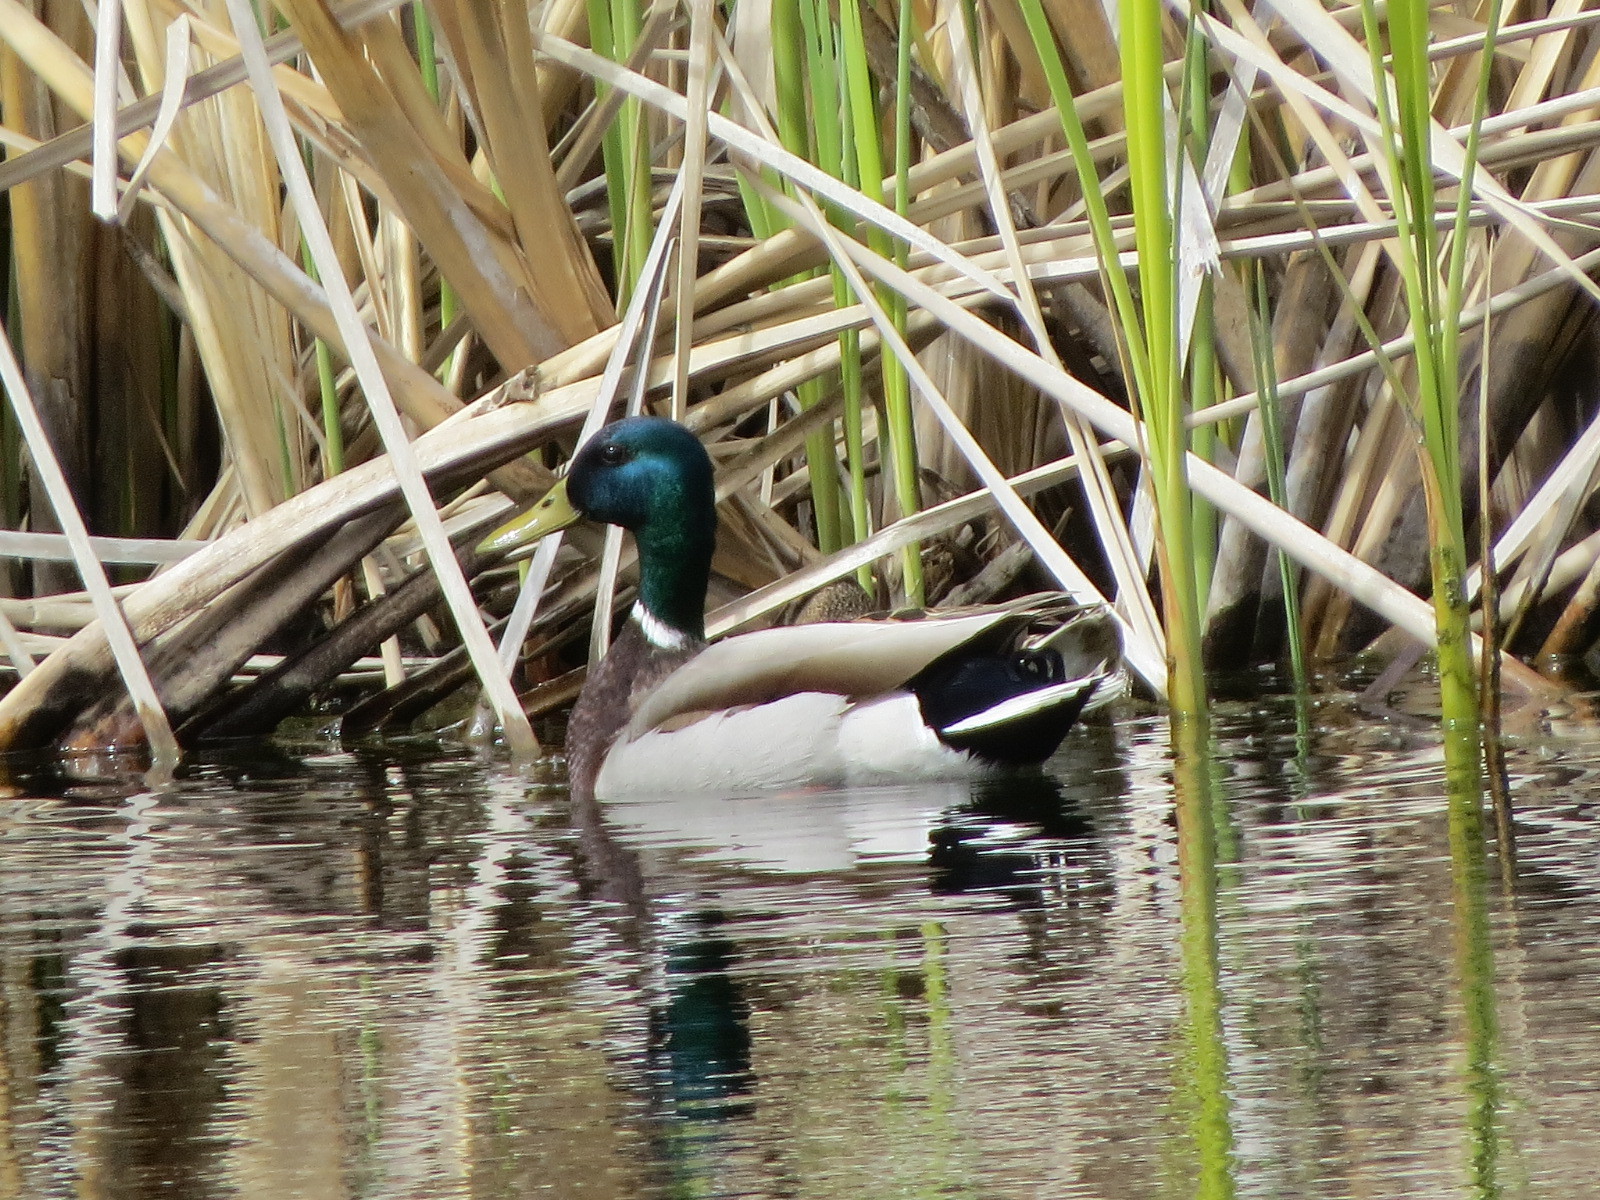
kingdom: Animalia
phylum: Chordata
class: Aves
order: Anseriformes
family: Anatidae
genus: Anas
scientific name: Anas platyrhynchos
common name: Mallard
